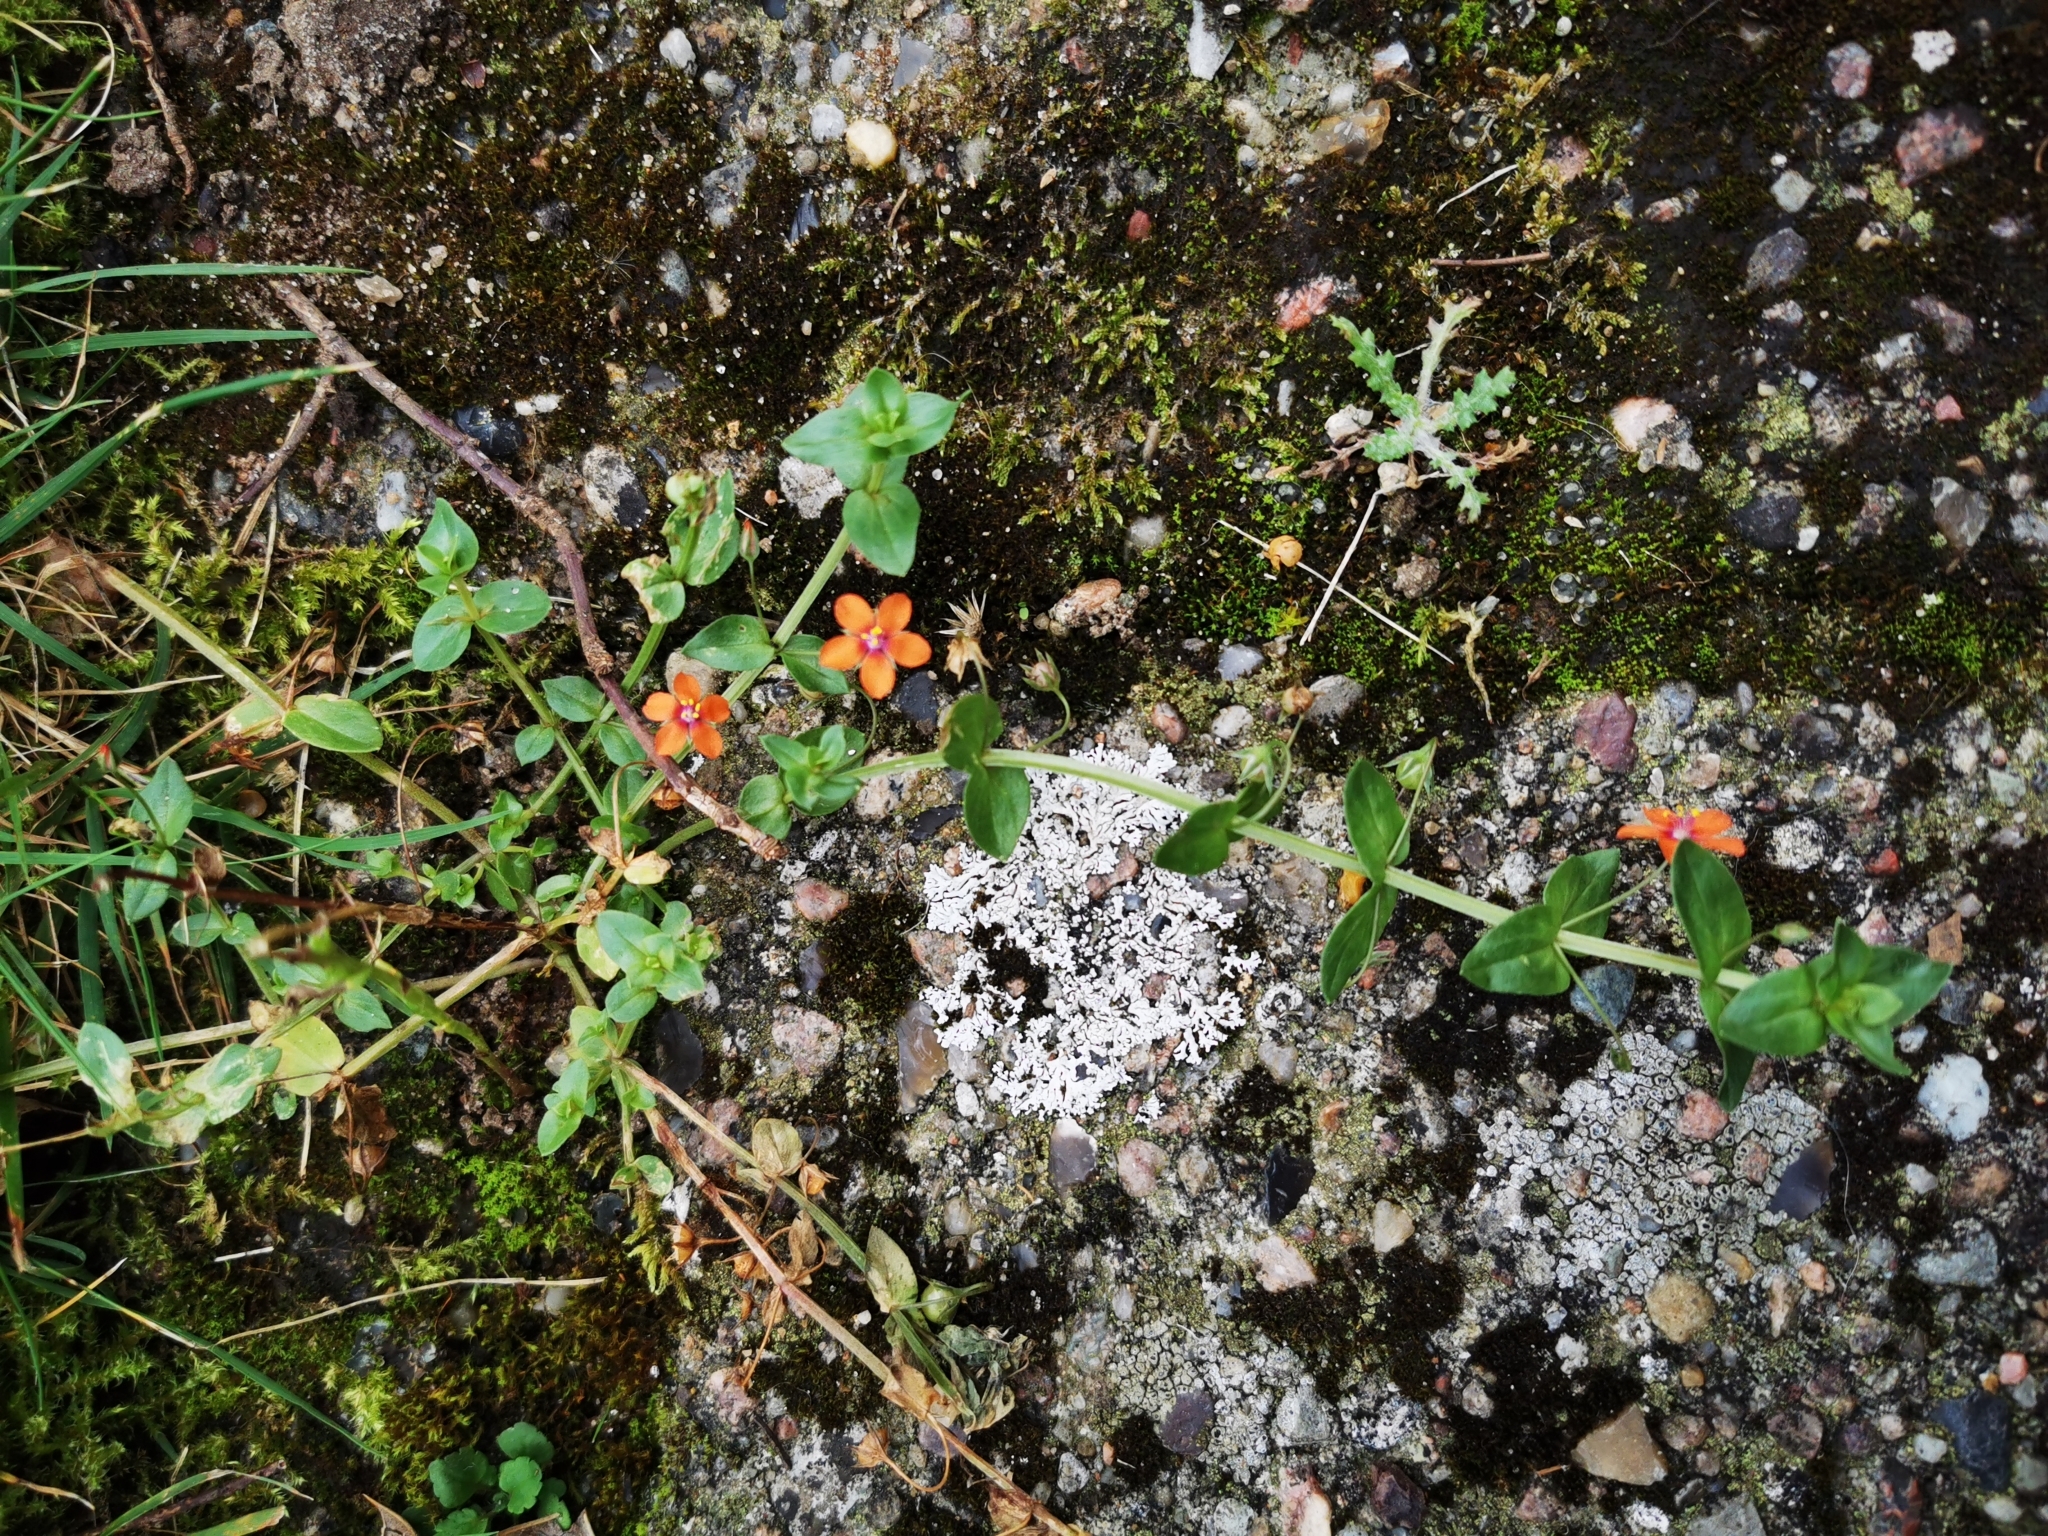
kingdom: Plantae
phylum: Tracheophyta
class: Magnoliopsida
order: Ericales
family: Primulaceae
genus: Lysimachia
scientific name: Lysimachia arvensis
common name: Scarlet pimpernel
